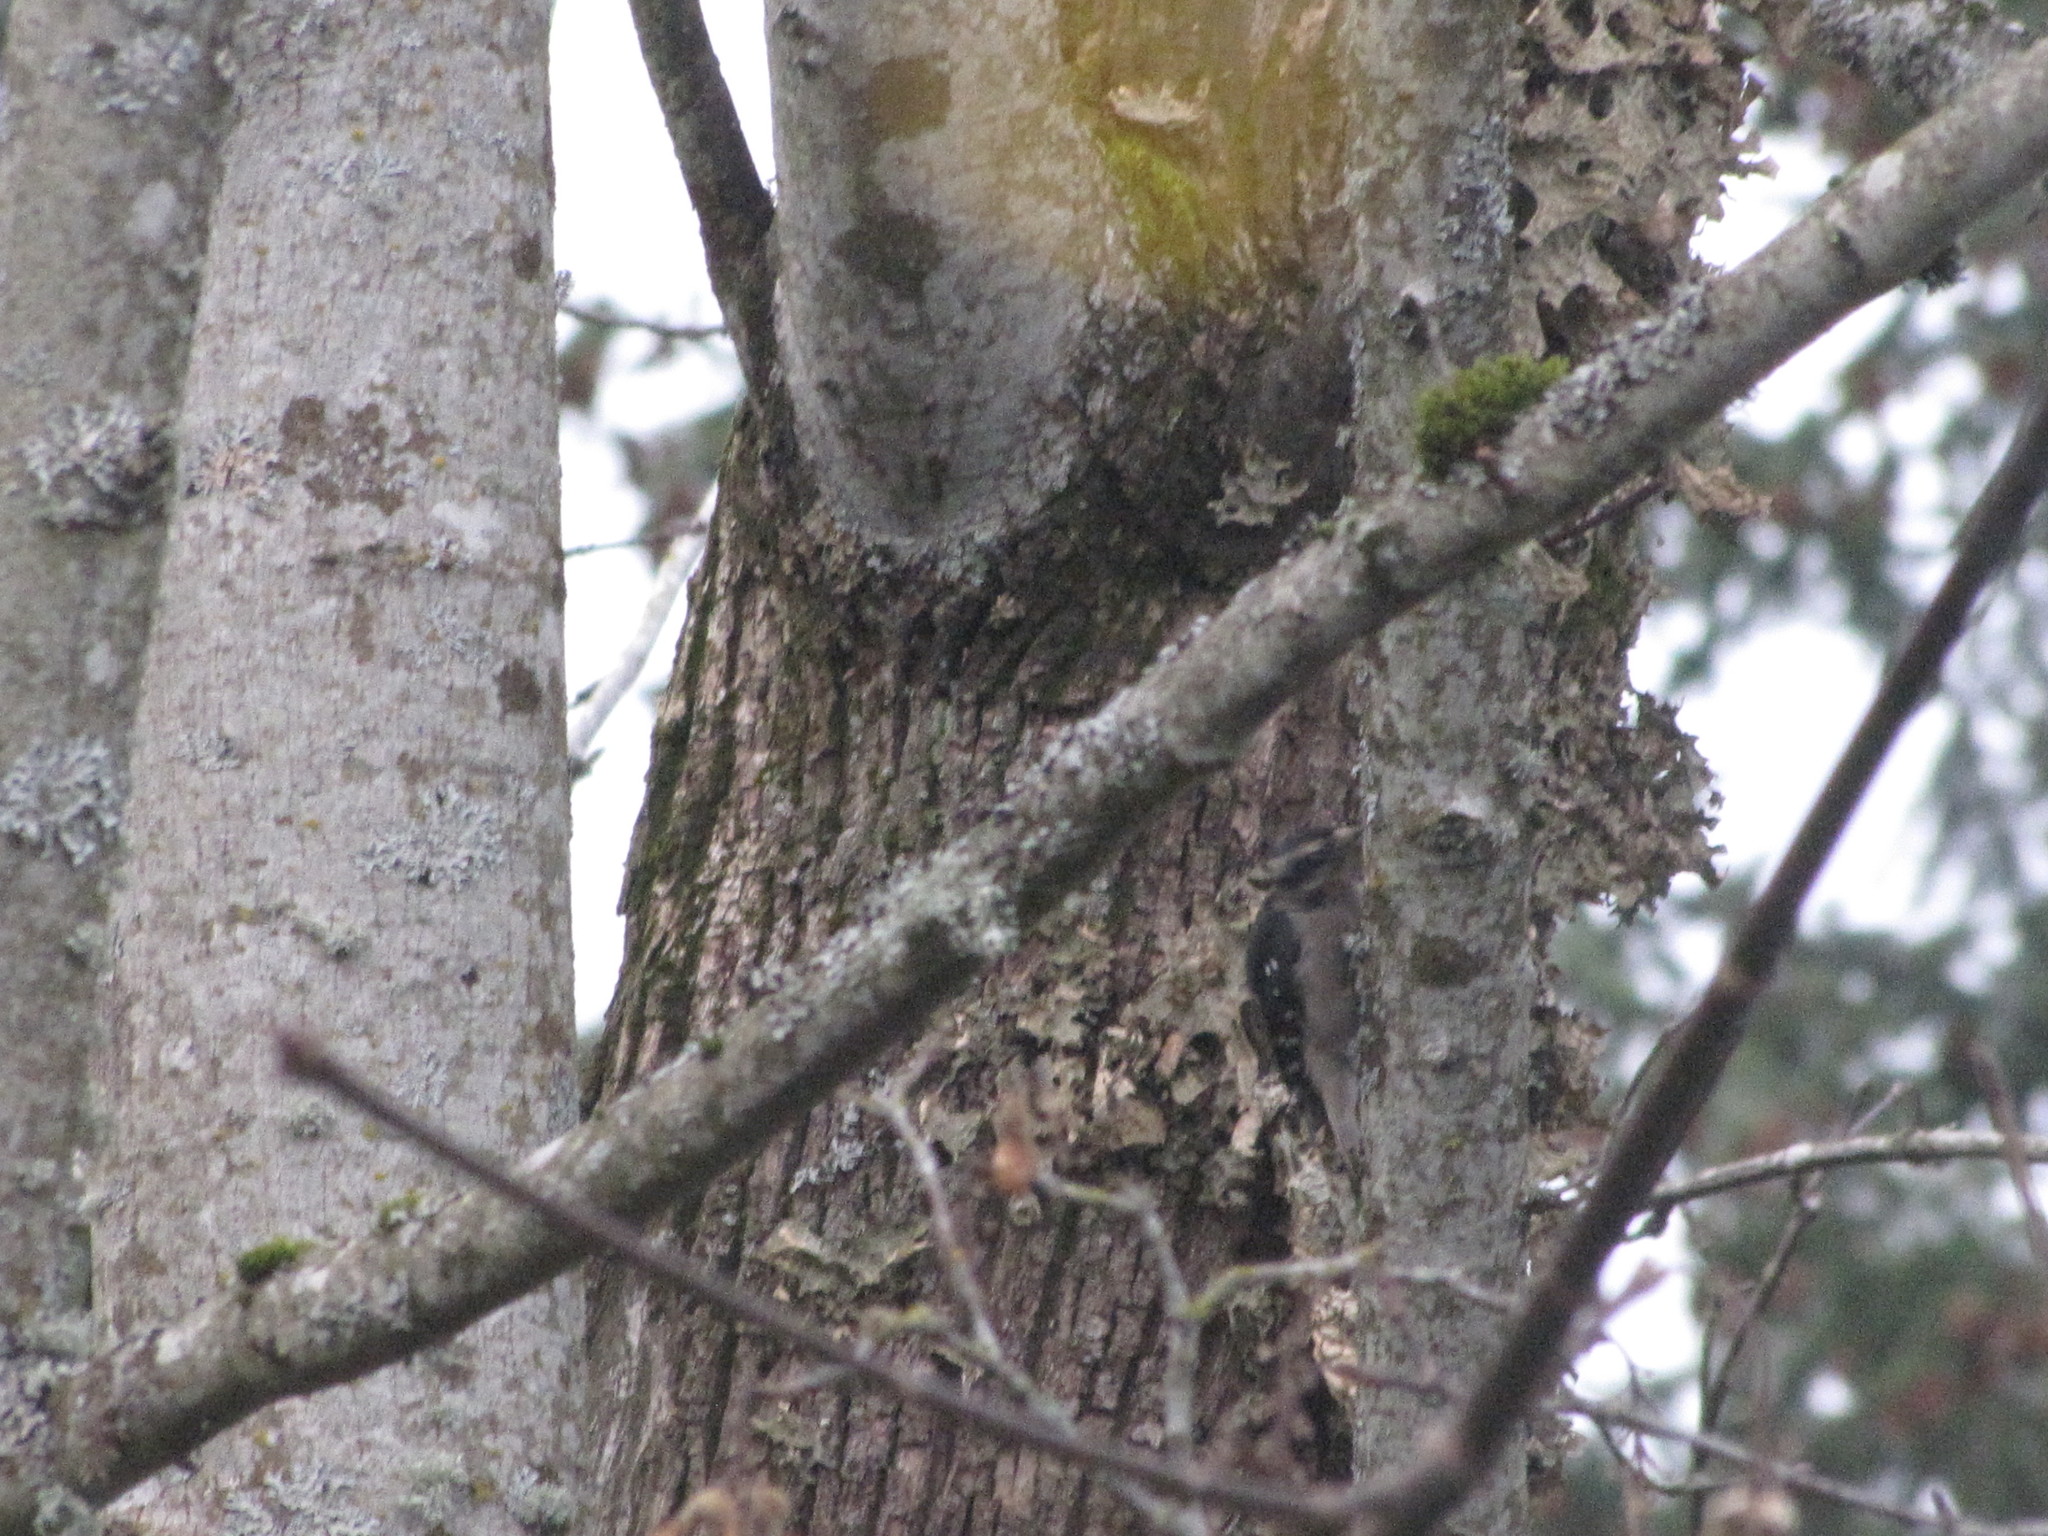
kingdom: Animalia
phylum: Chordata
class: Aves
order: Piciformes
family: Picidae
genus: Dryobates
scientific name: Dryobates pubescens
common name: Downy woodpecker
